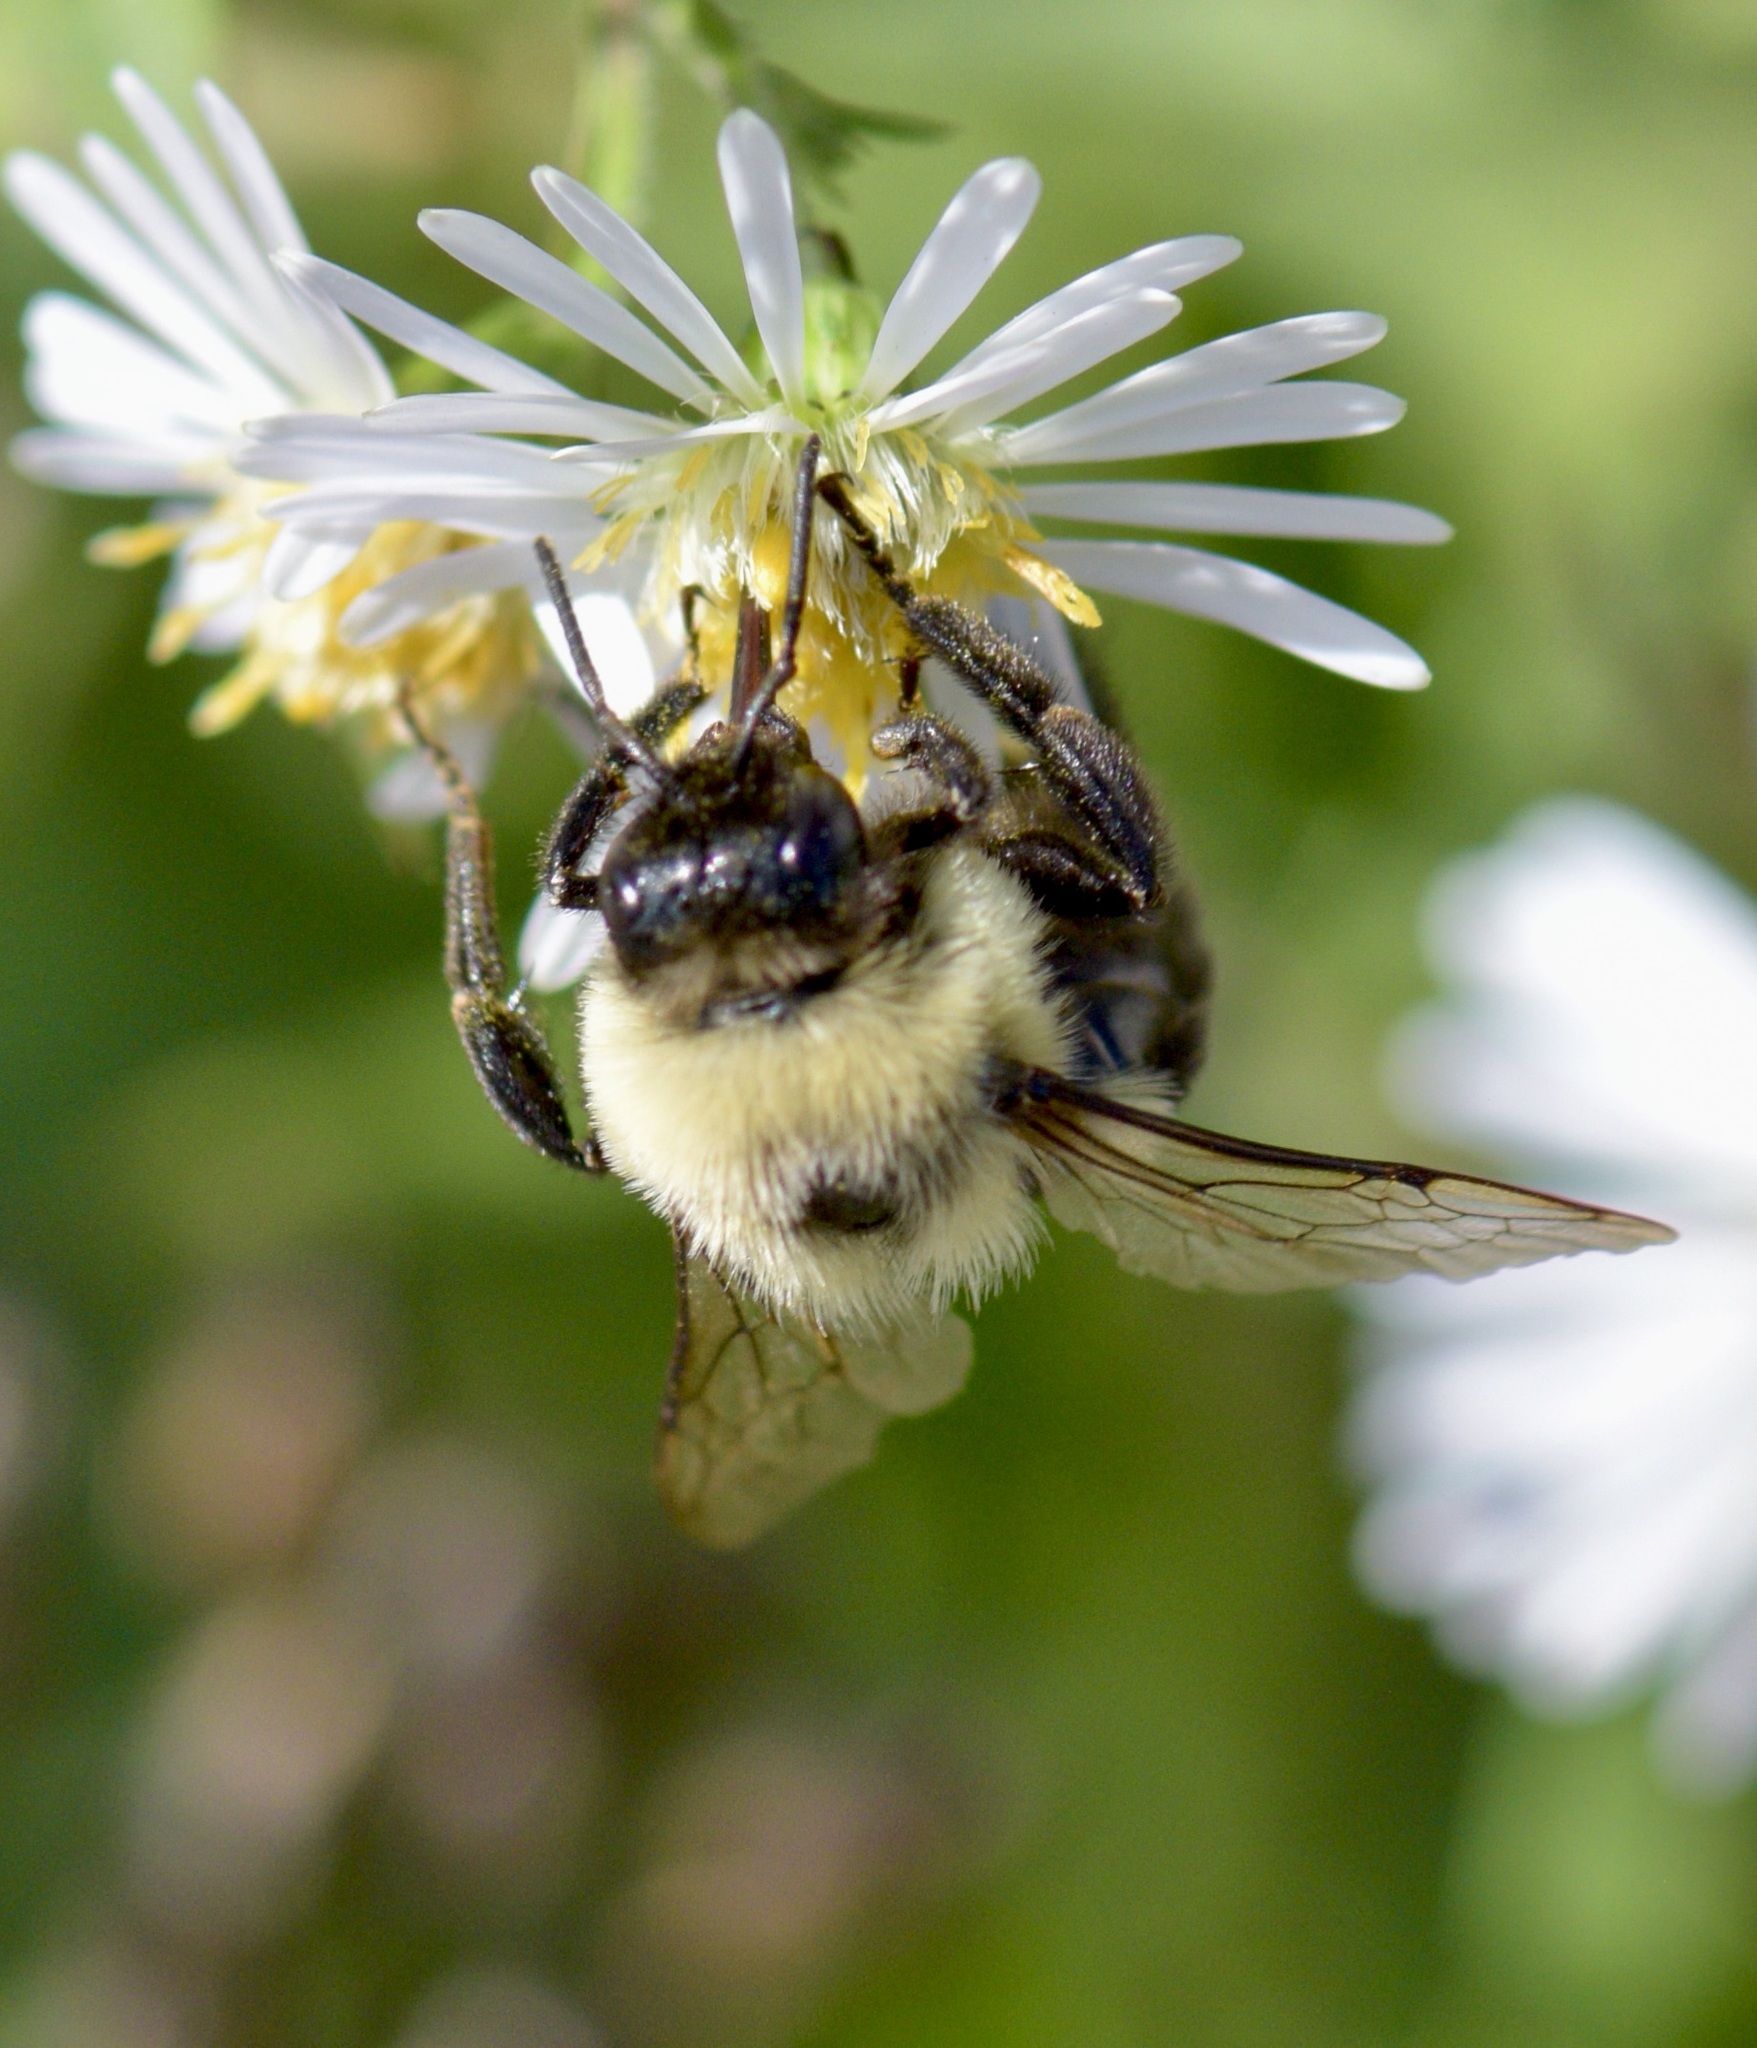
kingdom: Animalia
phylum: Arthropoda
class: Insecta
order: Hymenoptera
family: Apidae
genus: Bombus
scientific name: Bombus impatiens
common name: Common eastern bumble bee
